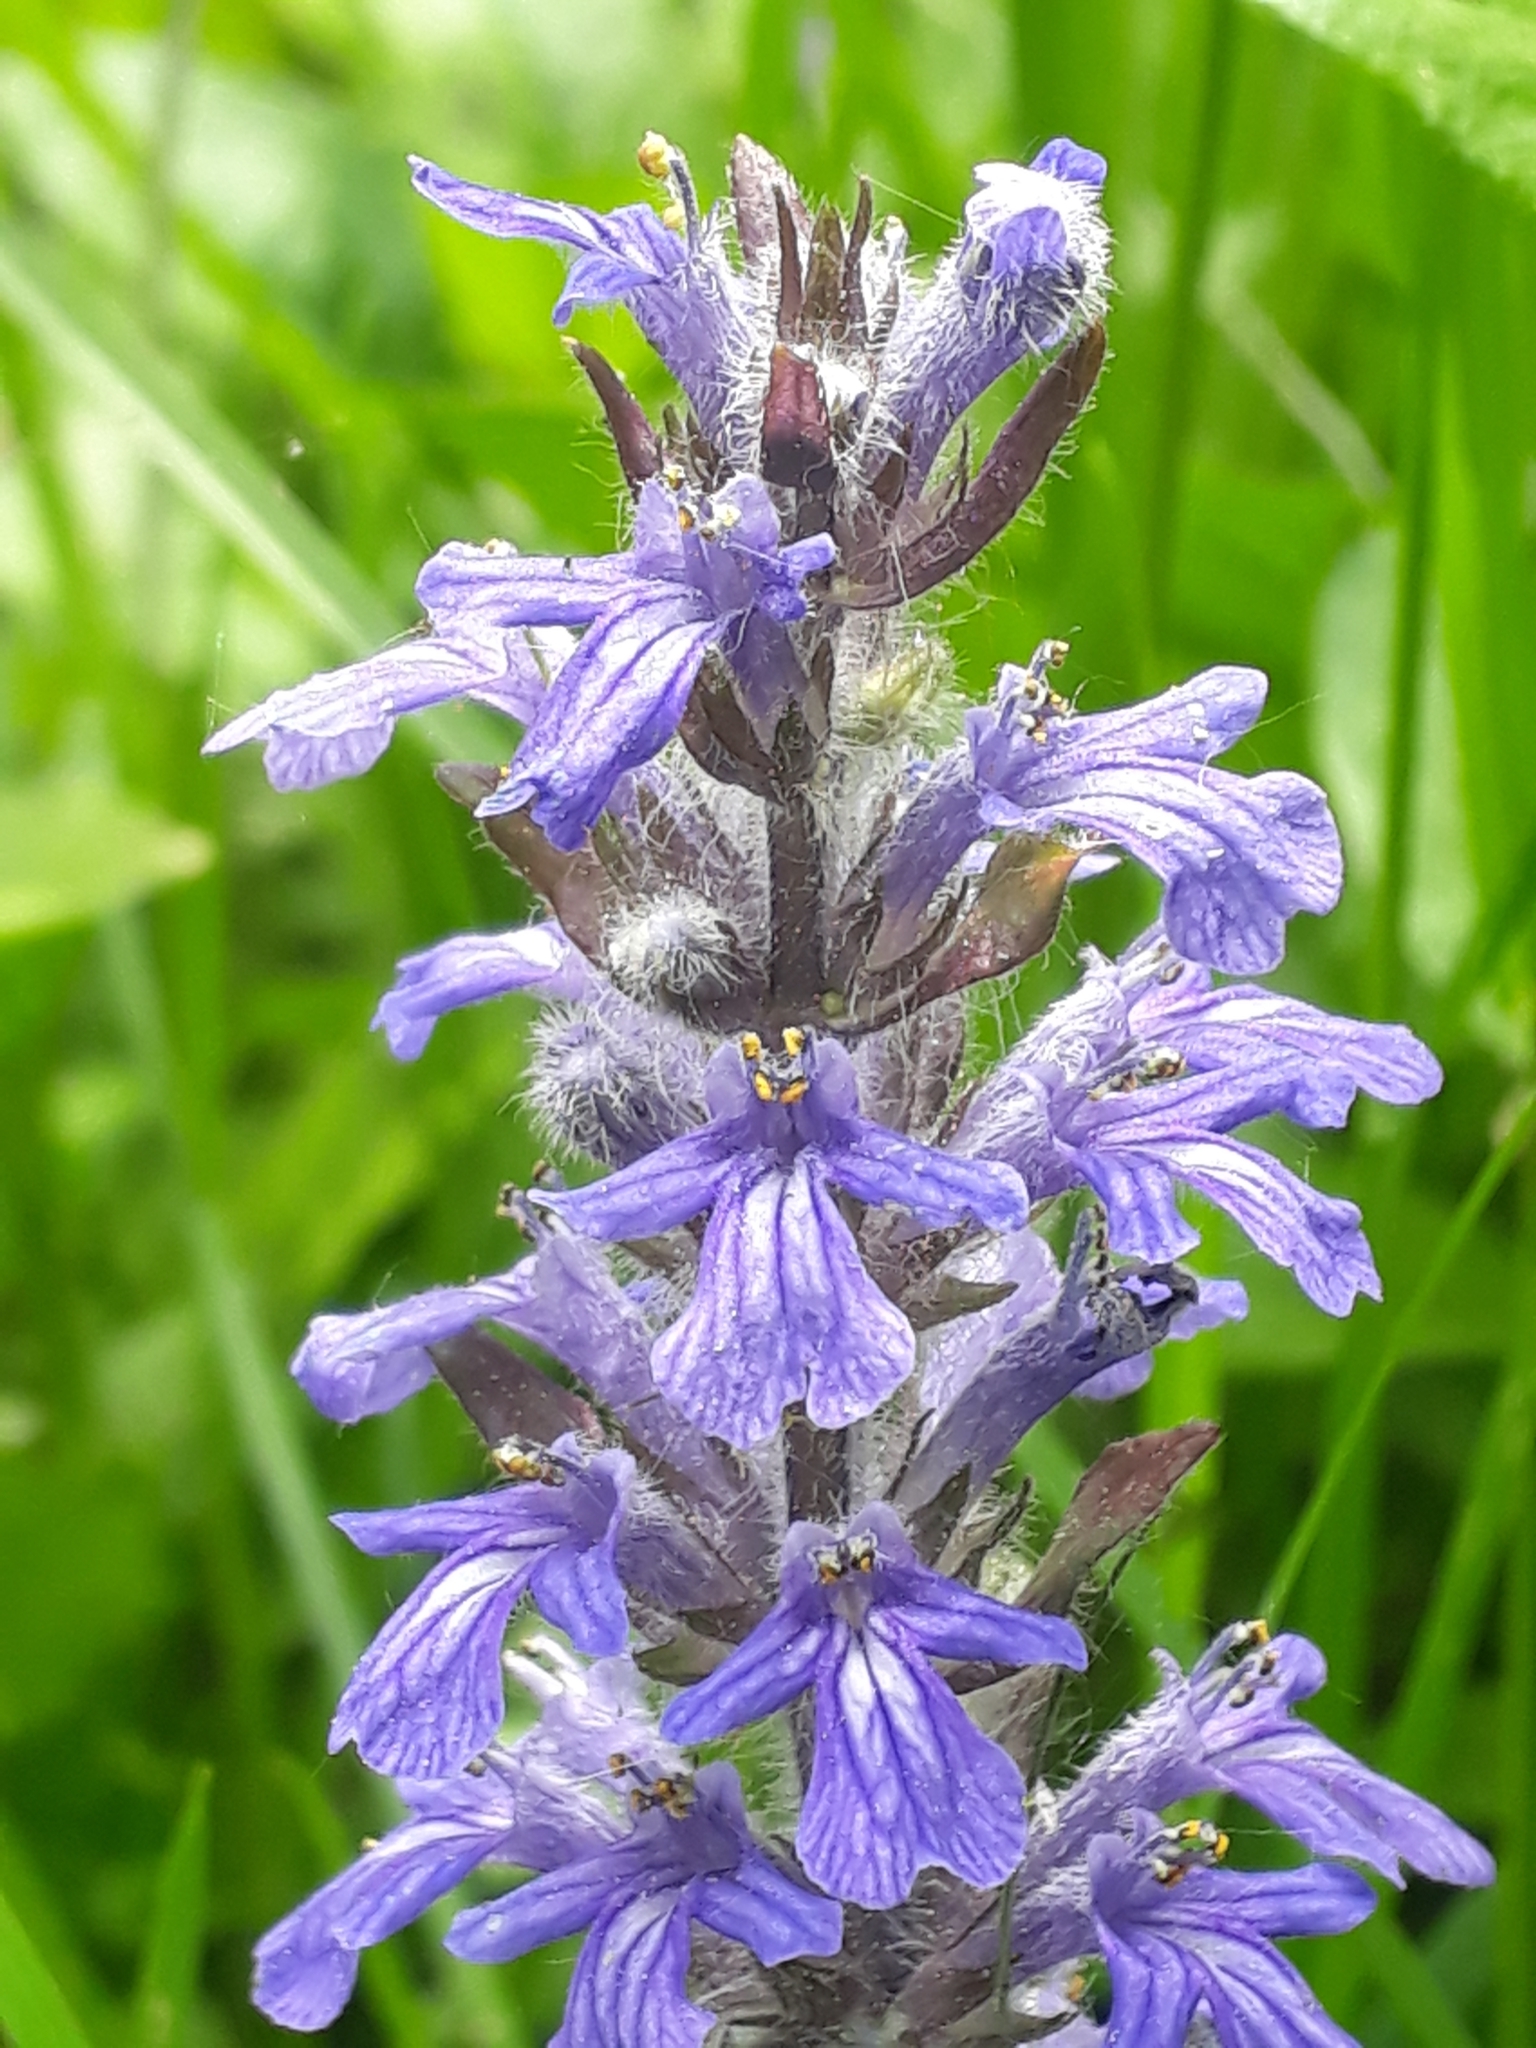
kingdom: Plantae
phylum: Tracheophyta
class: Magnoliopsida
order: Lamiales
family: Lamiaceae
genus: Ajuga
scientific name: Ajuga reptans
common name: Bugle
